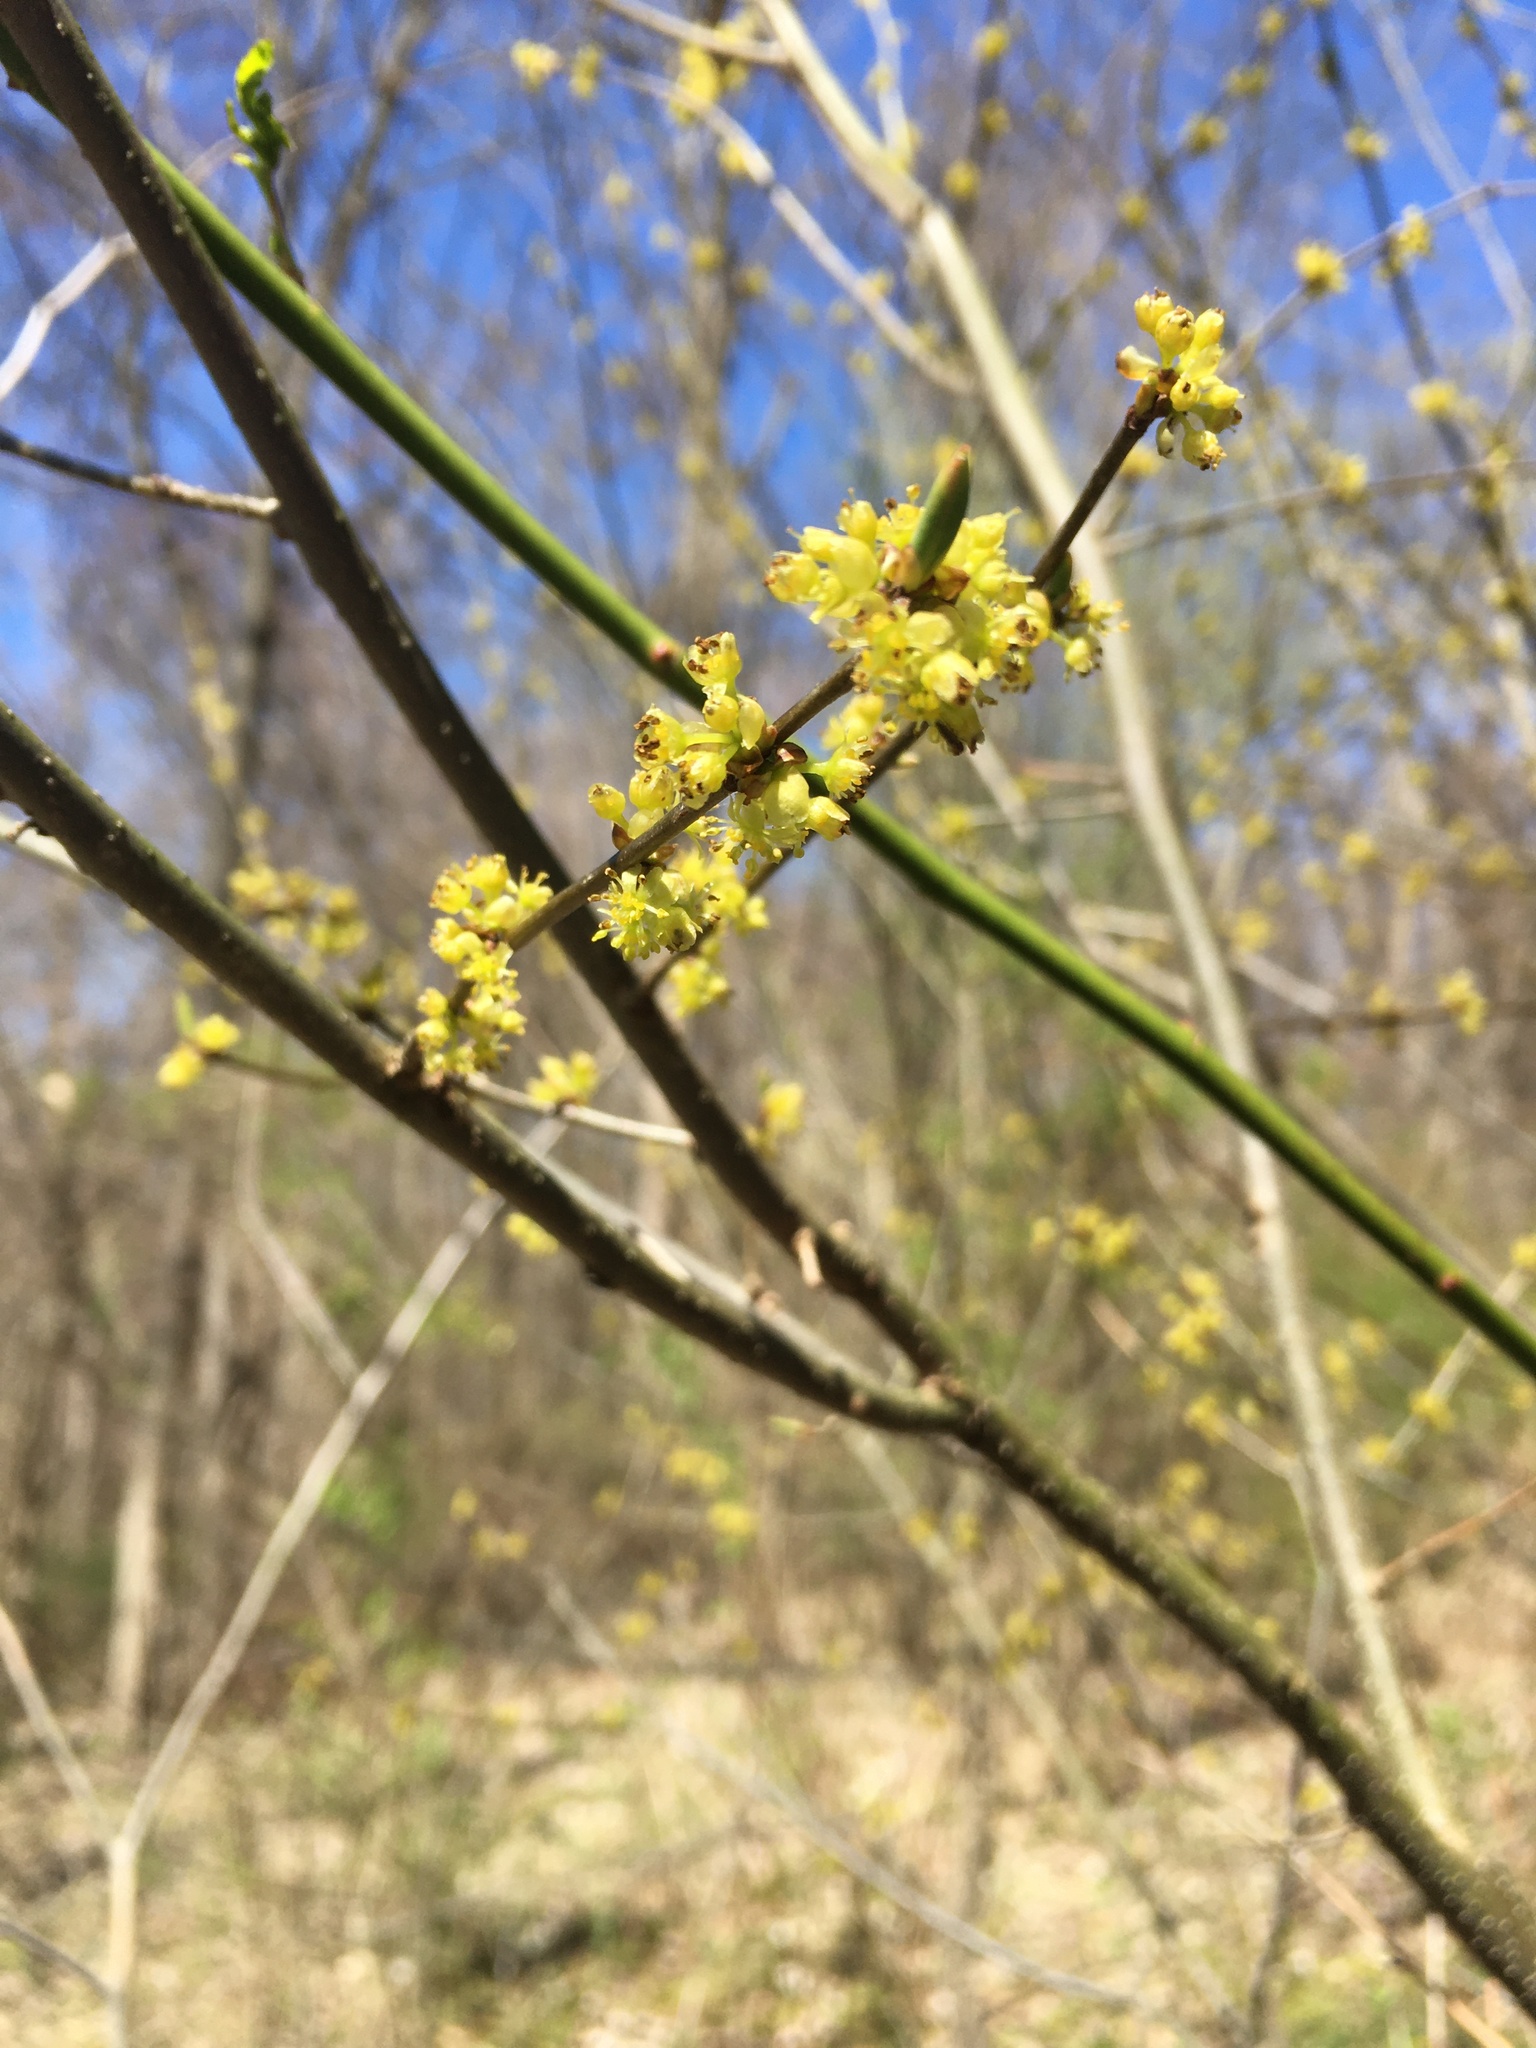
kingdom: Plantae
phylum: Tracheophyta
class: Magnoliopsida
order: Laurales
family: Lauraceae
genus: Lindera
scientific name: Lindera benzoin
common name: Spicebush
